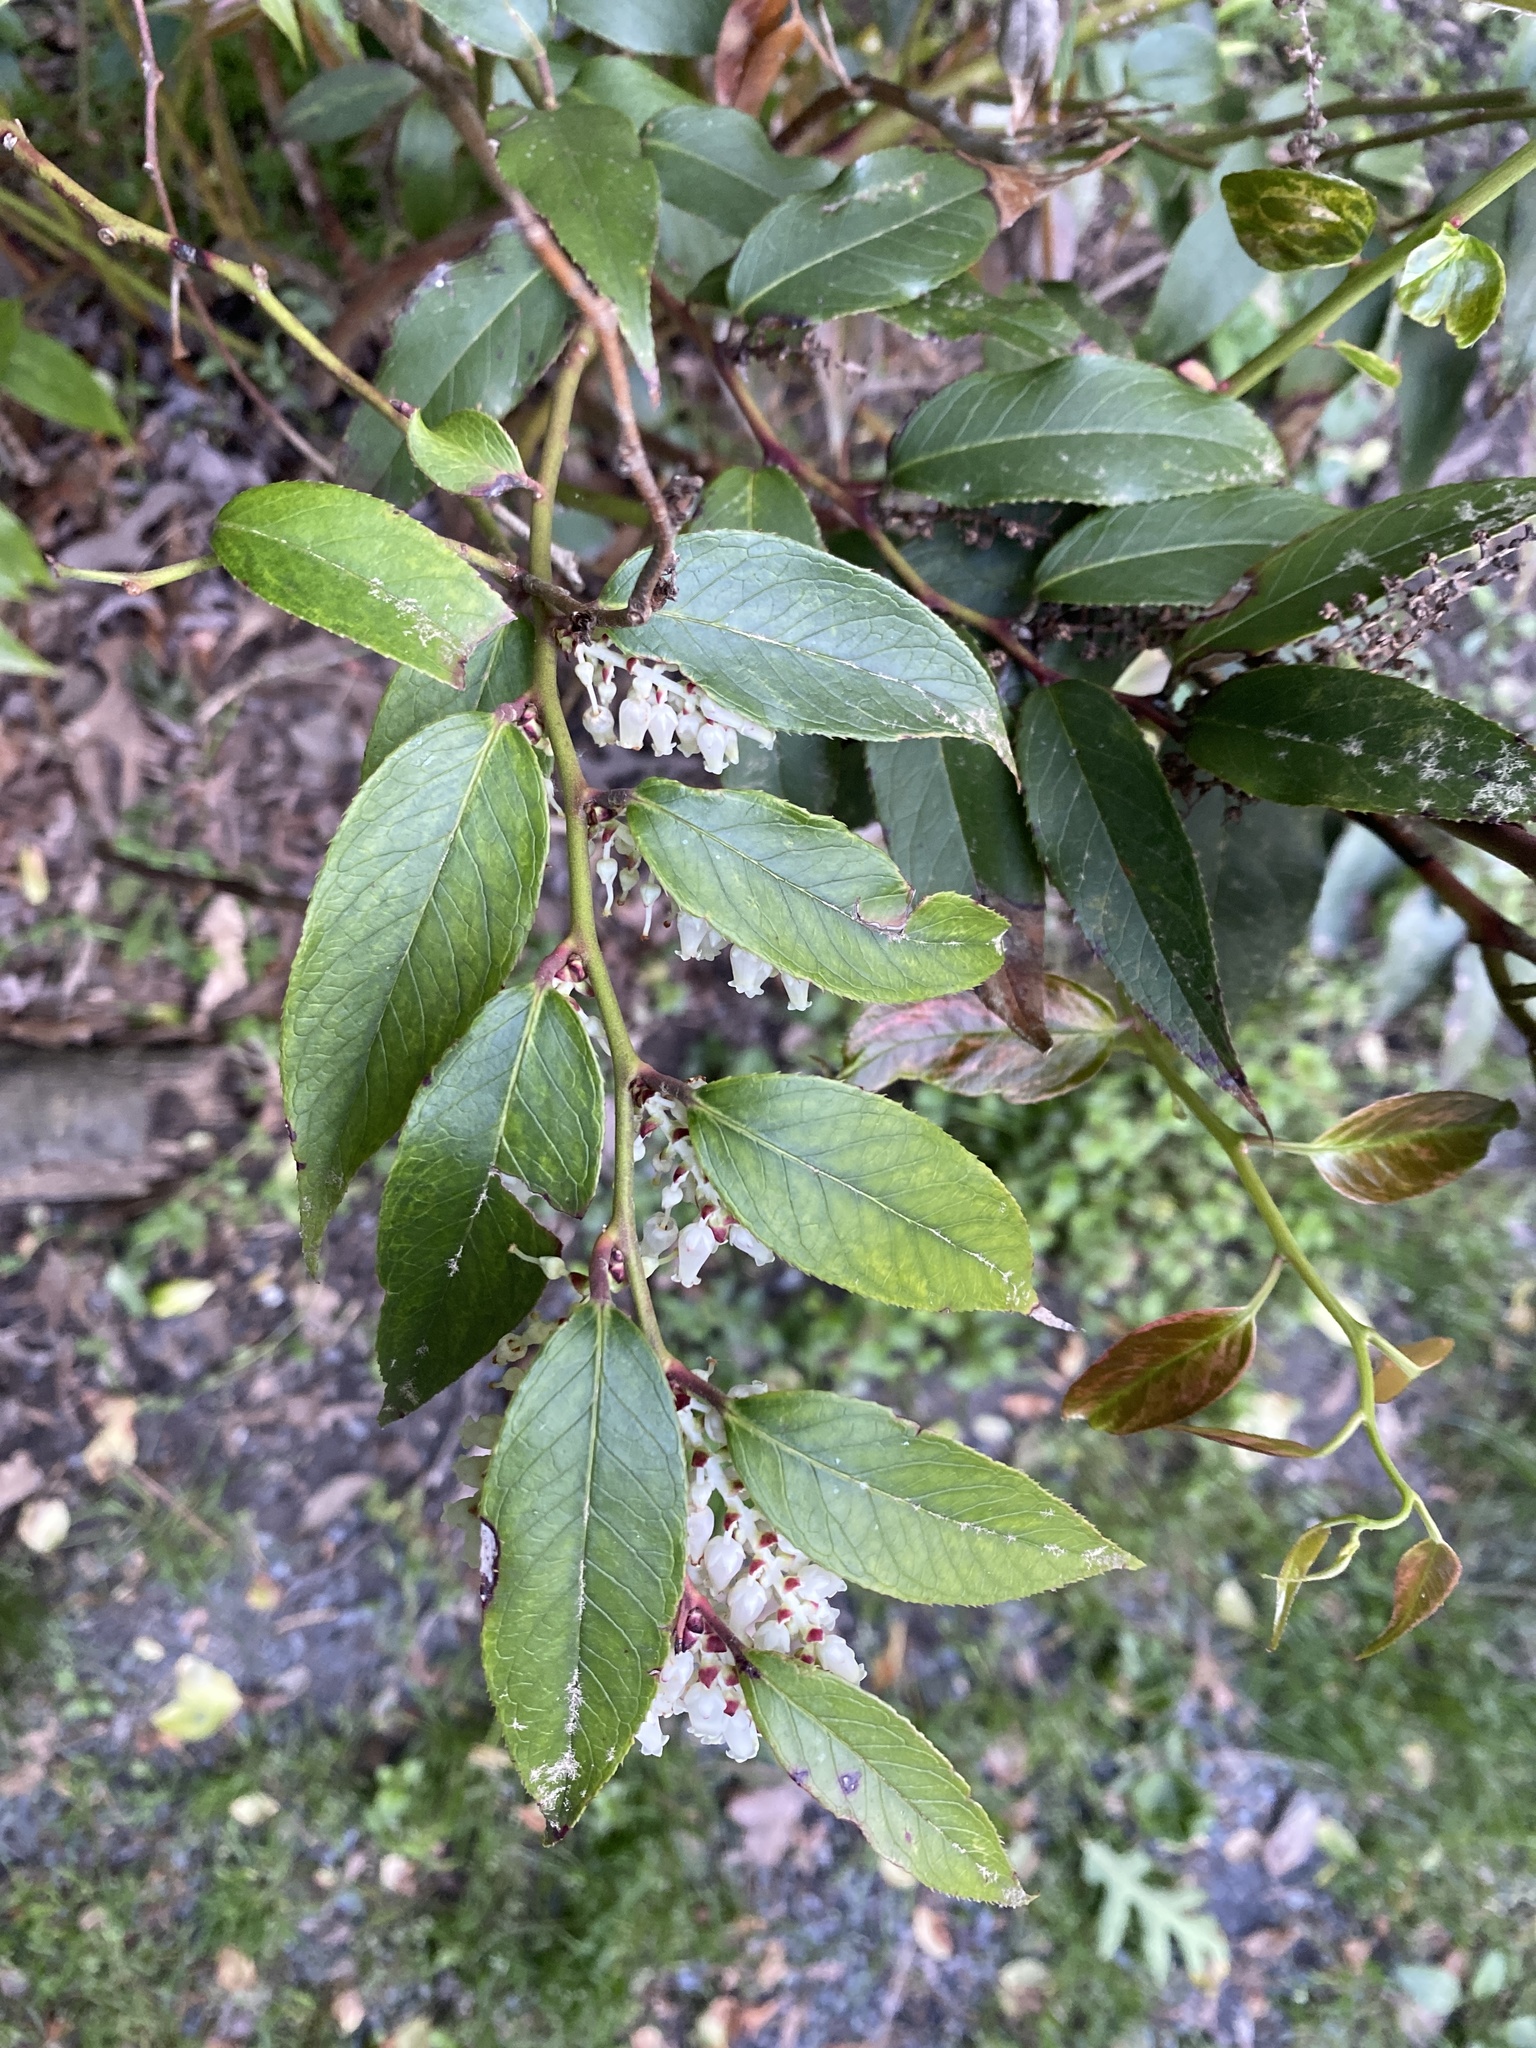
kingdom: Plantae
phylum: Tracheophyta
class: Magnoliopsida
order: Ericales
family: Ericaceae
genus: Leucothoe
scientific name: Leucothoe fontanesiana
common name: Fetterbush
